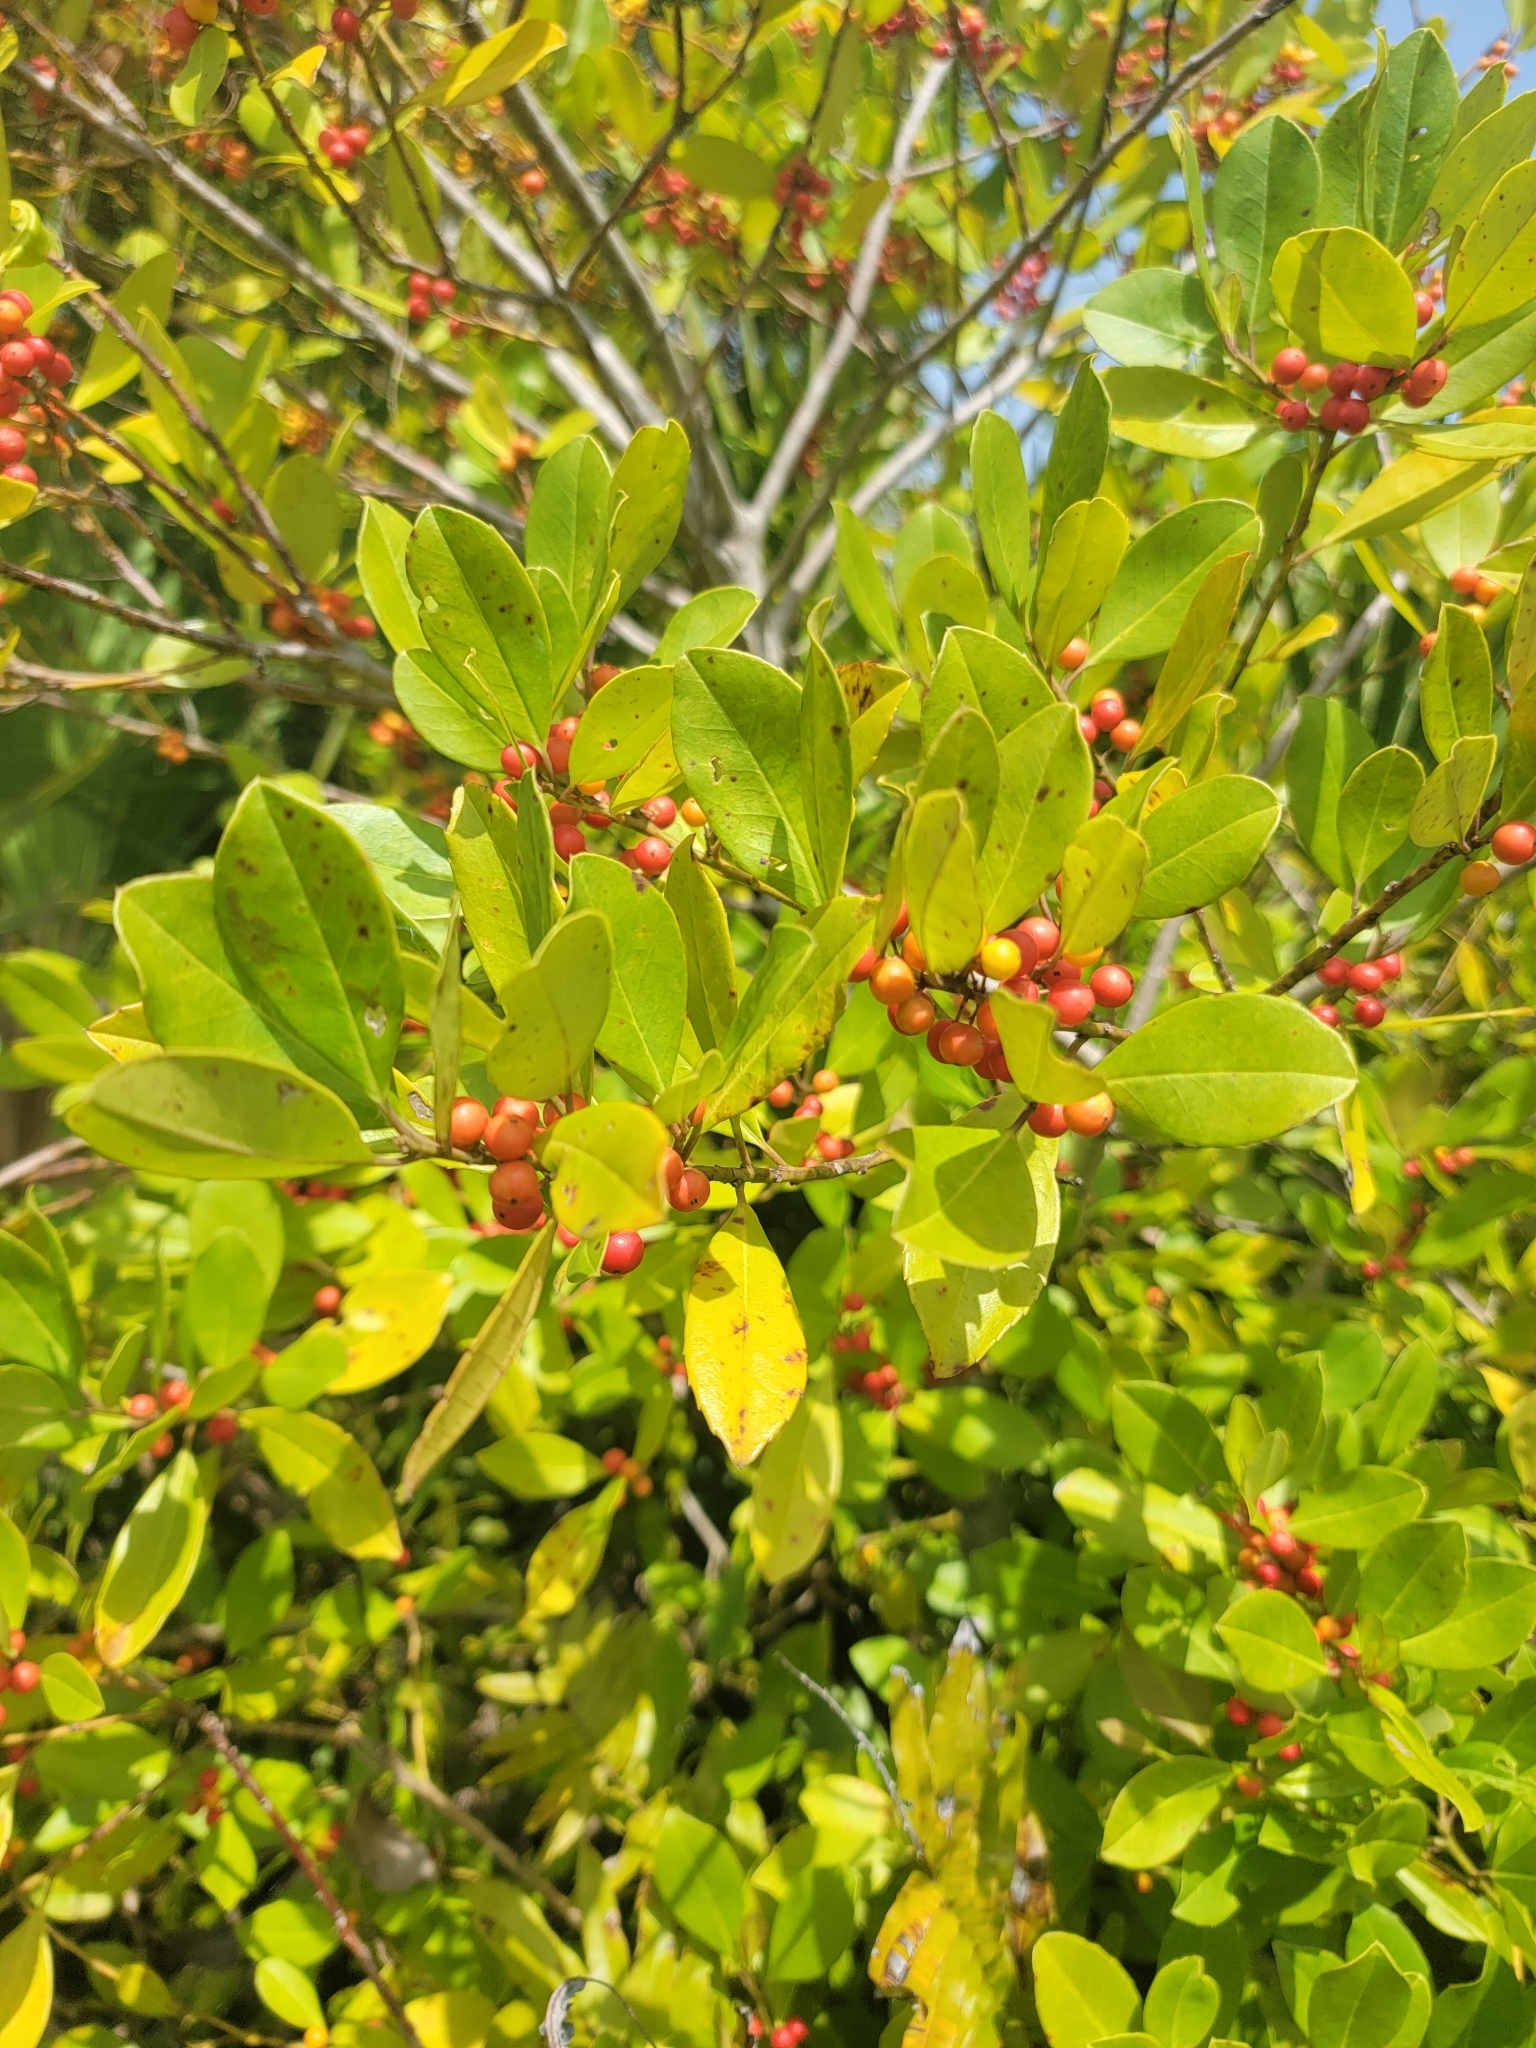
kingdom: Plantae
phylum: Tracheophyta
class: Magnoliopsida
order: Aquifoliales
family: Aquifoliaceae
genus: Ilex
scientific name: Ilex cassine
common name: Dahoon
